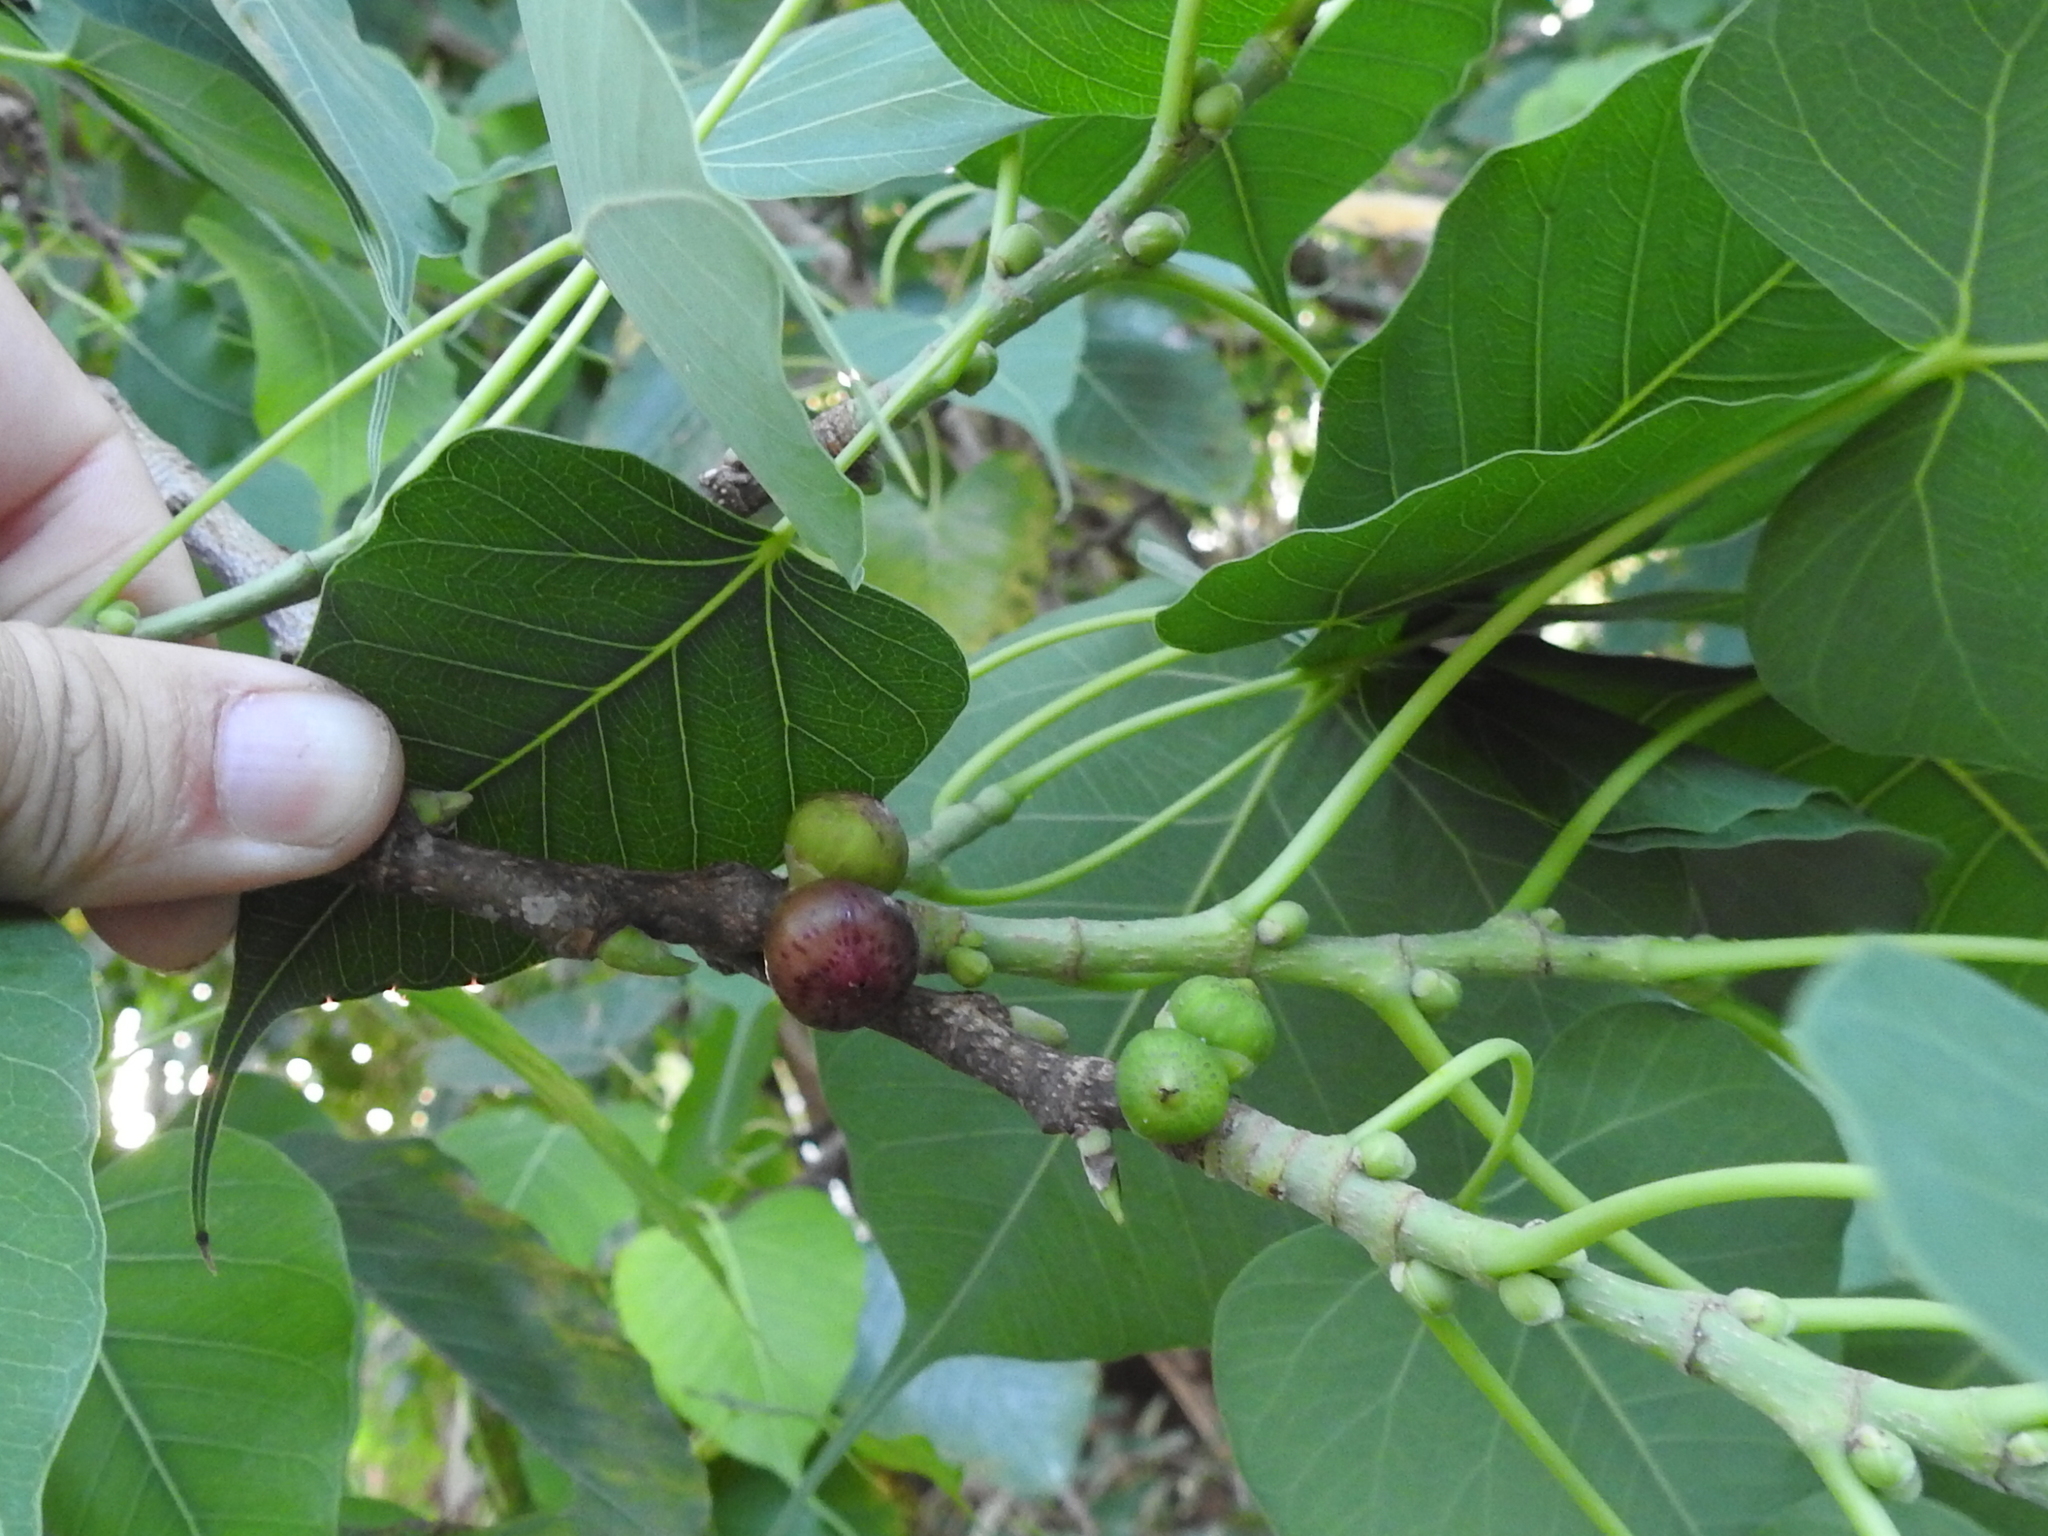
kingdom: Plantae
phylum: Tracheophyta
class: Magnoliopsida
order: Rosales
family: Moraceae
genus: Ficus
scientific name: Ficus religiosa
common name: Bodhi tree
